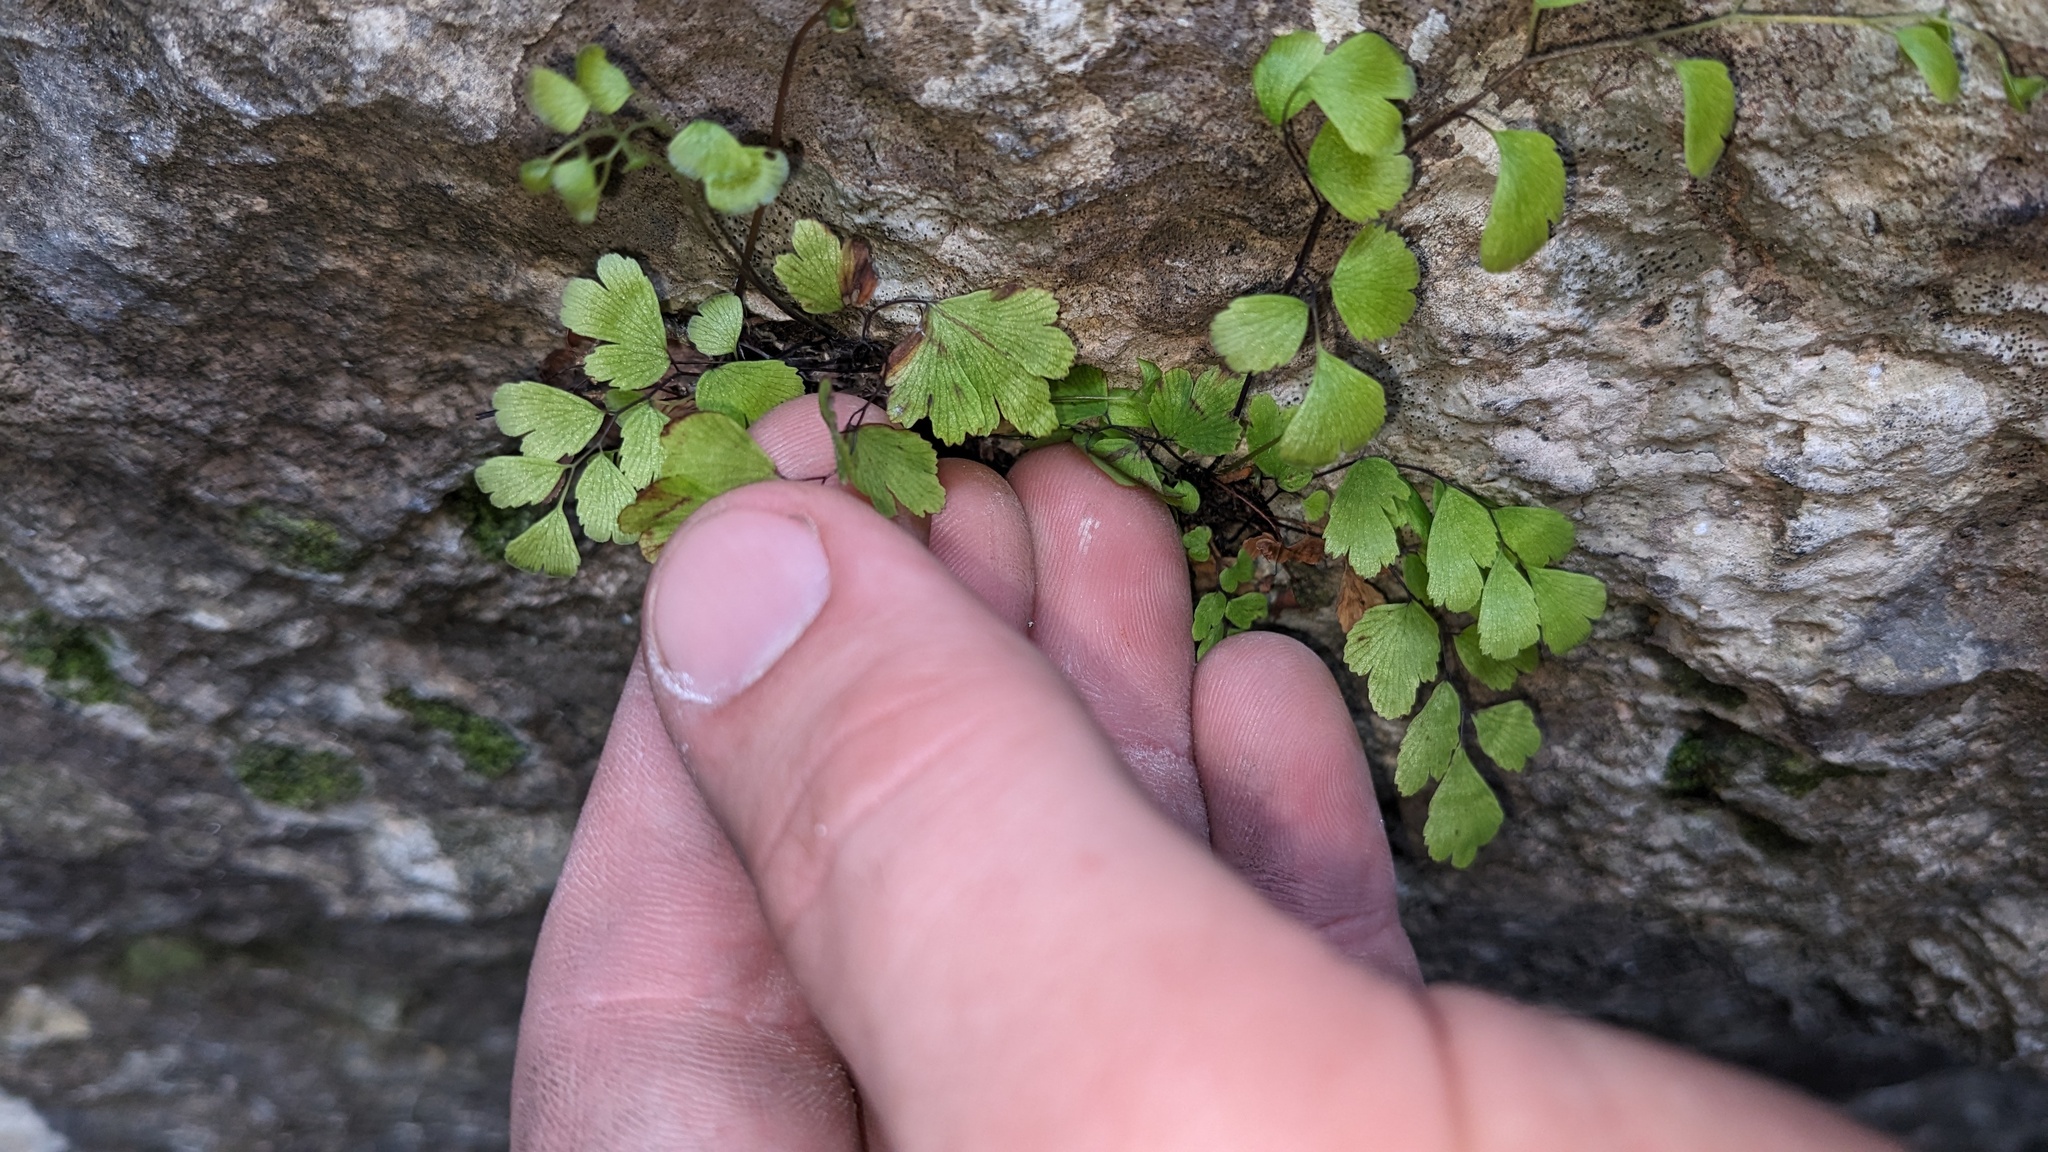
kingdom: Plantae
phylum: Tracheophyta
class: Polypodiopsida
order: Polypodiales
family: Pteridaceae
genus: Adiantum
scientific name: Adiantum capillus-veneris
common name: Maidenhair fern
